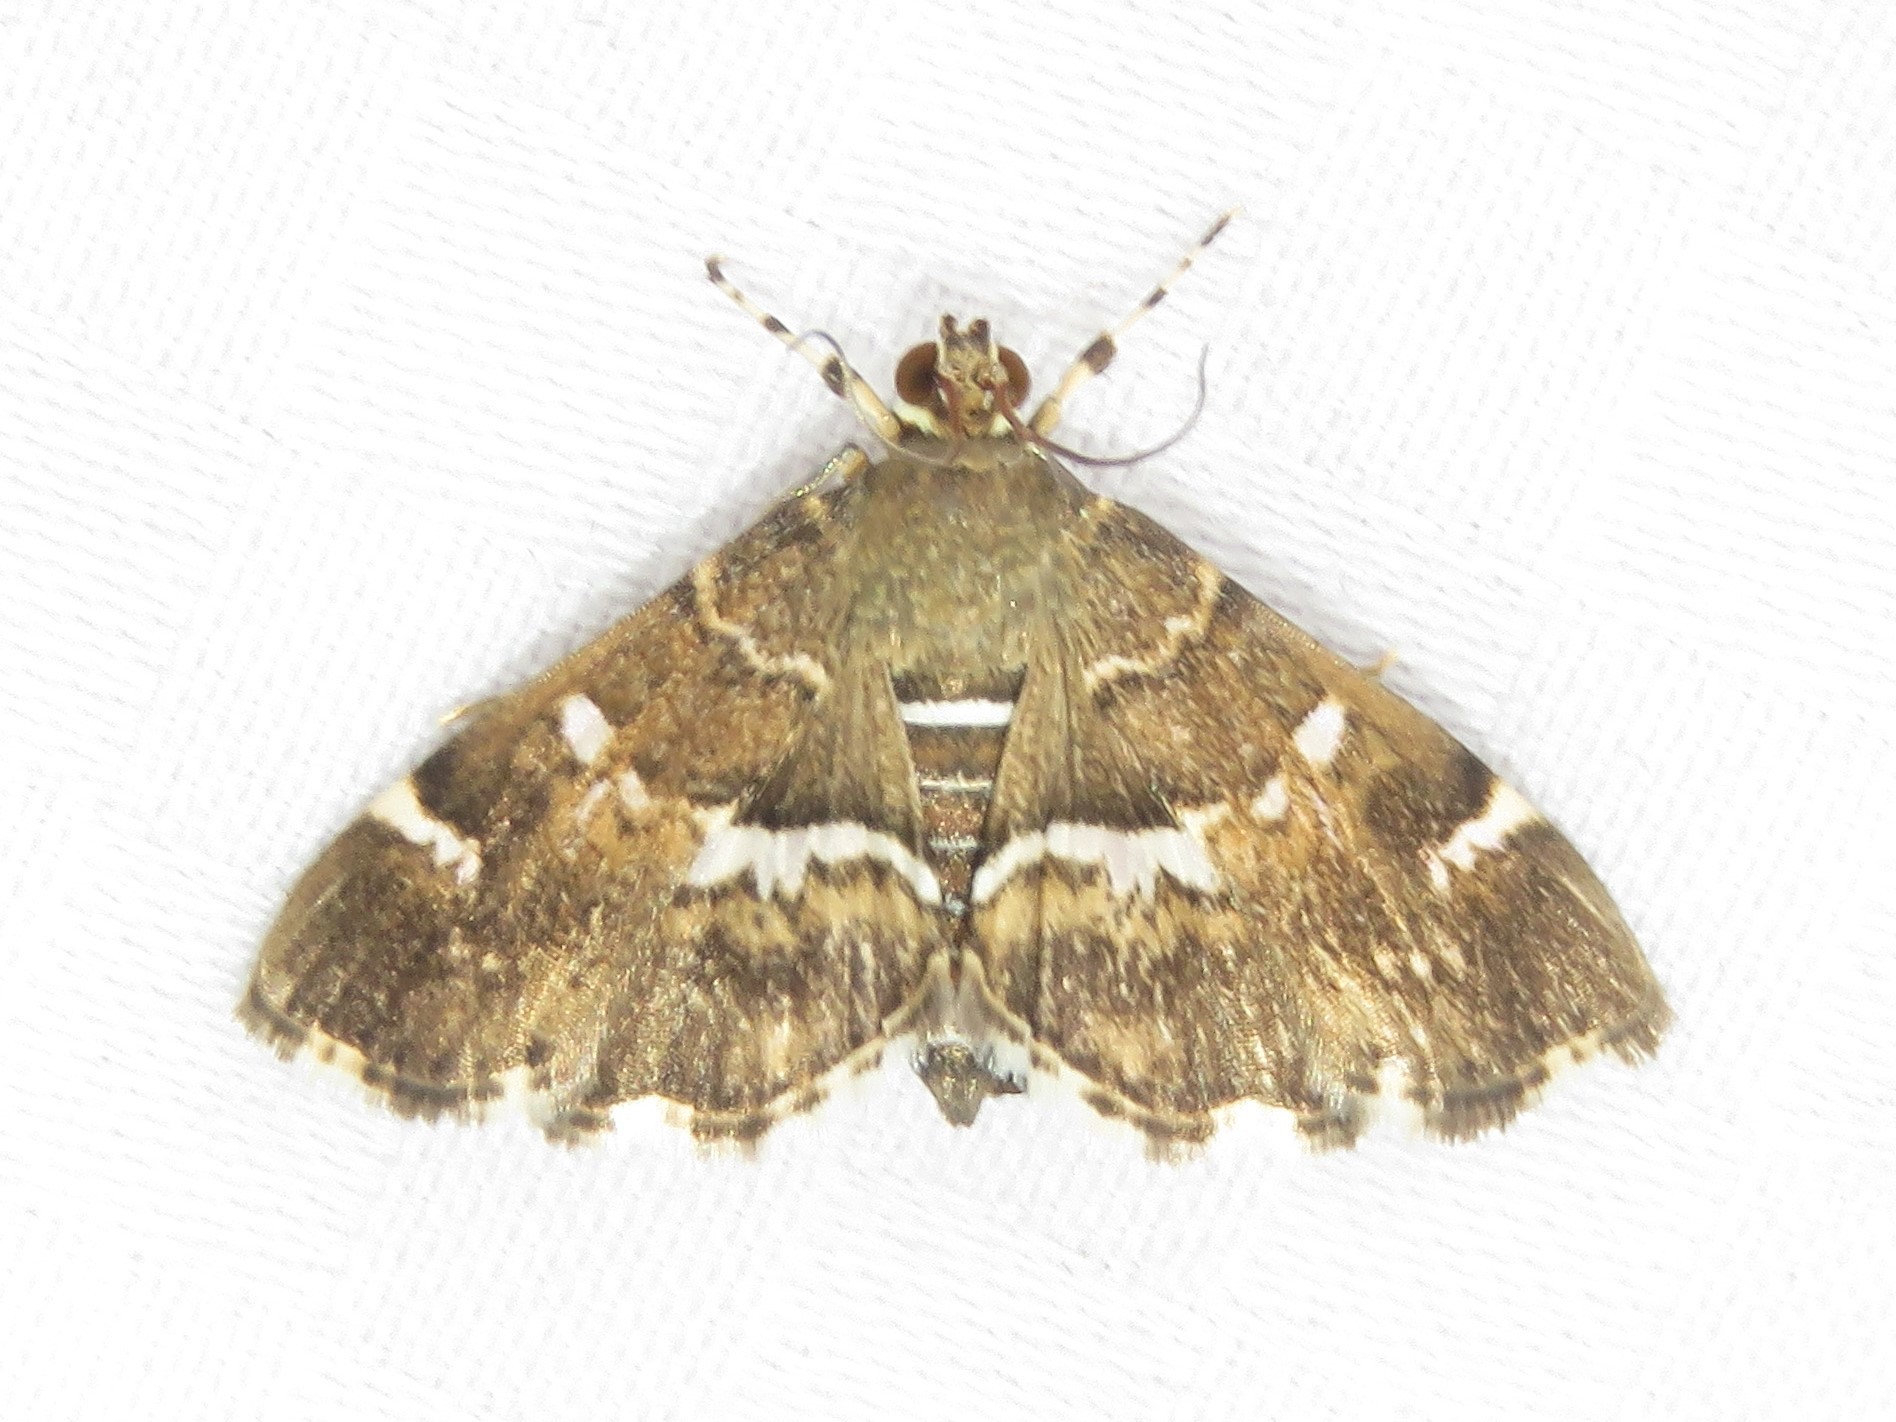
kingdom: Animalia
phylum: Arthropoda
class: Insecta
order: Lepidoptera
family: Crambidae
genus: Hymenia
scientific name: Hymenia perspectalis
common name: Spotted beet webworm
